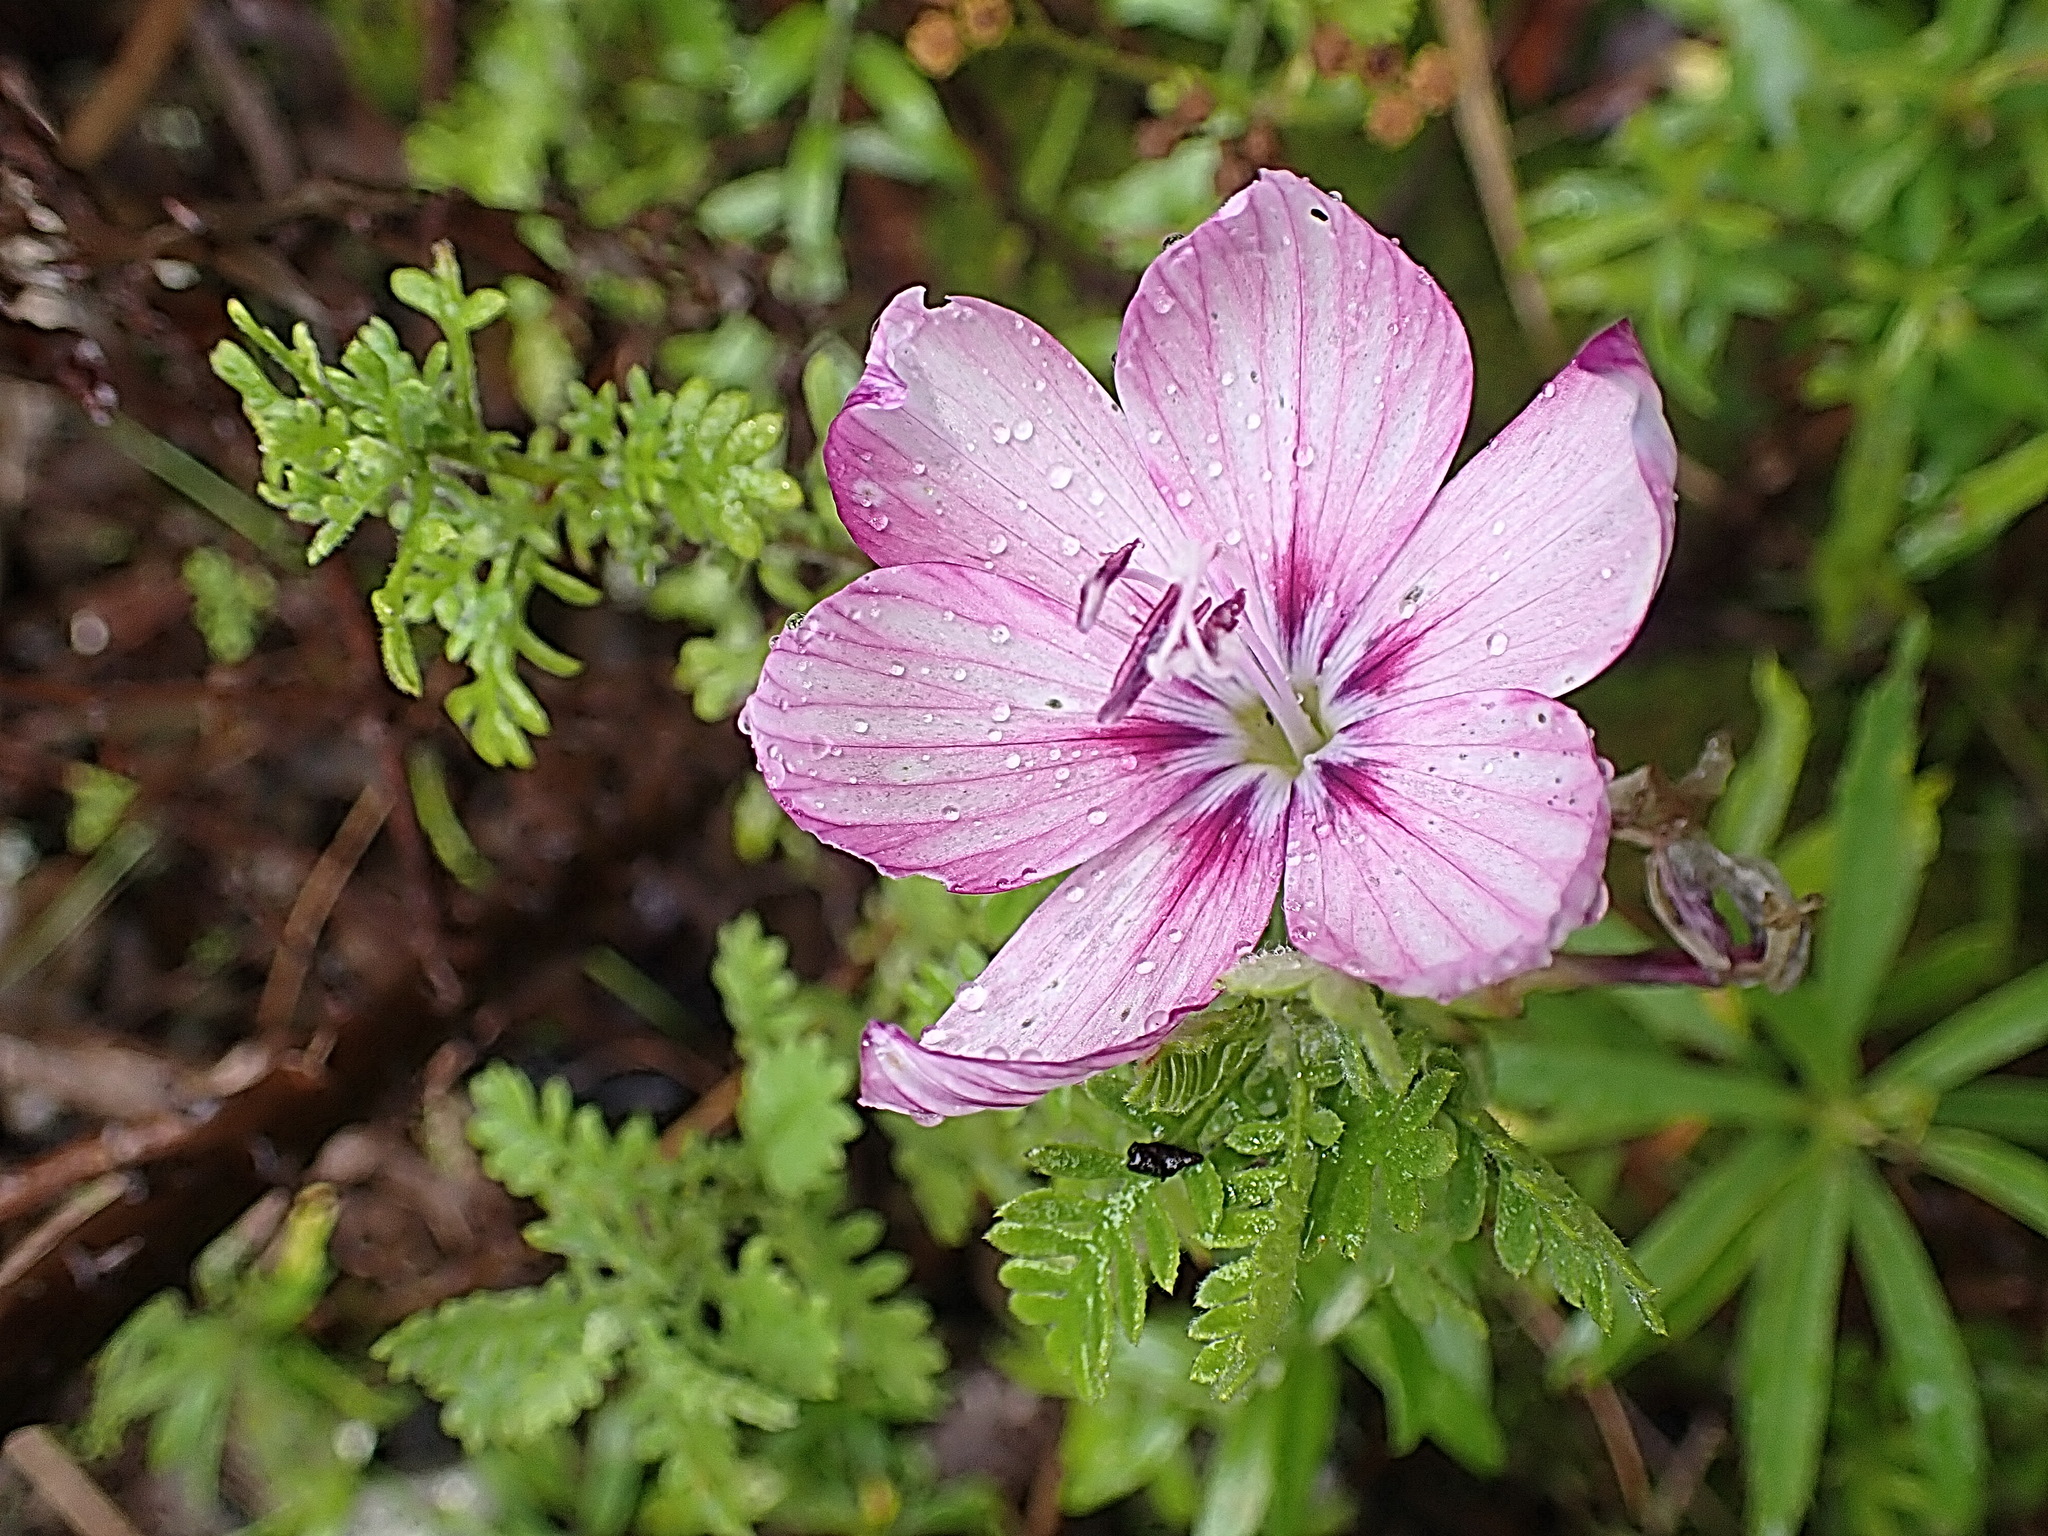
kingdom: Plantae
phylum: Tracheophyta
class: Liliopsida
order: Asparagales
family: Iridaceae
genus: Geissorhiza
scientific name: Geissorhiza outeniquensis
